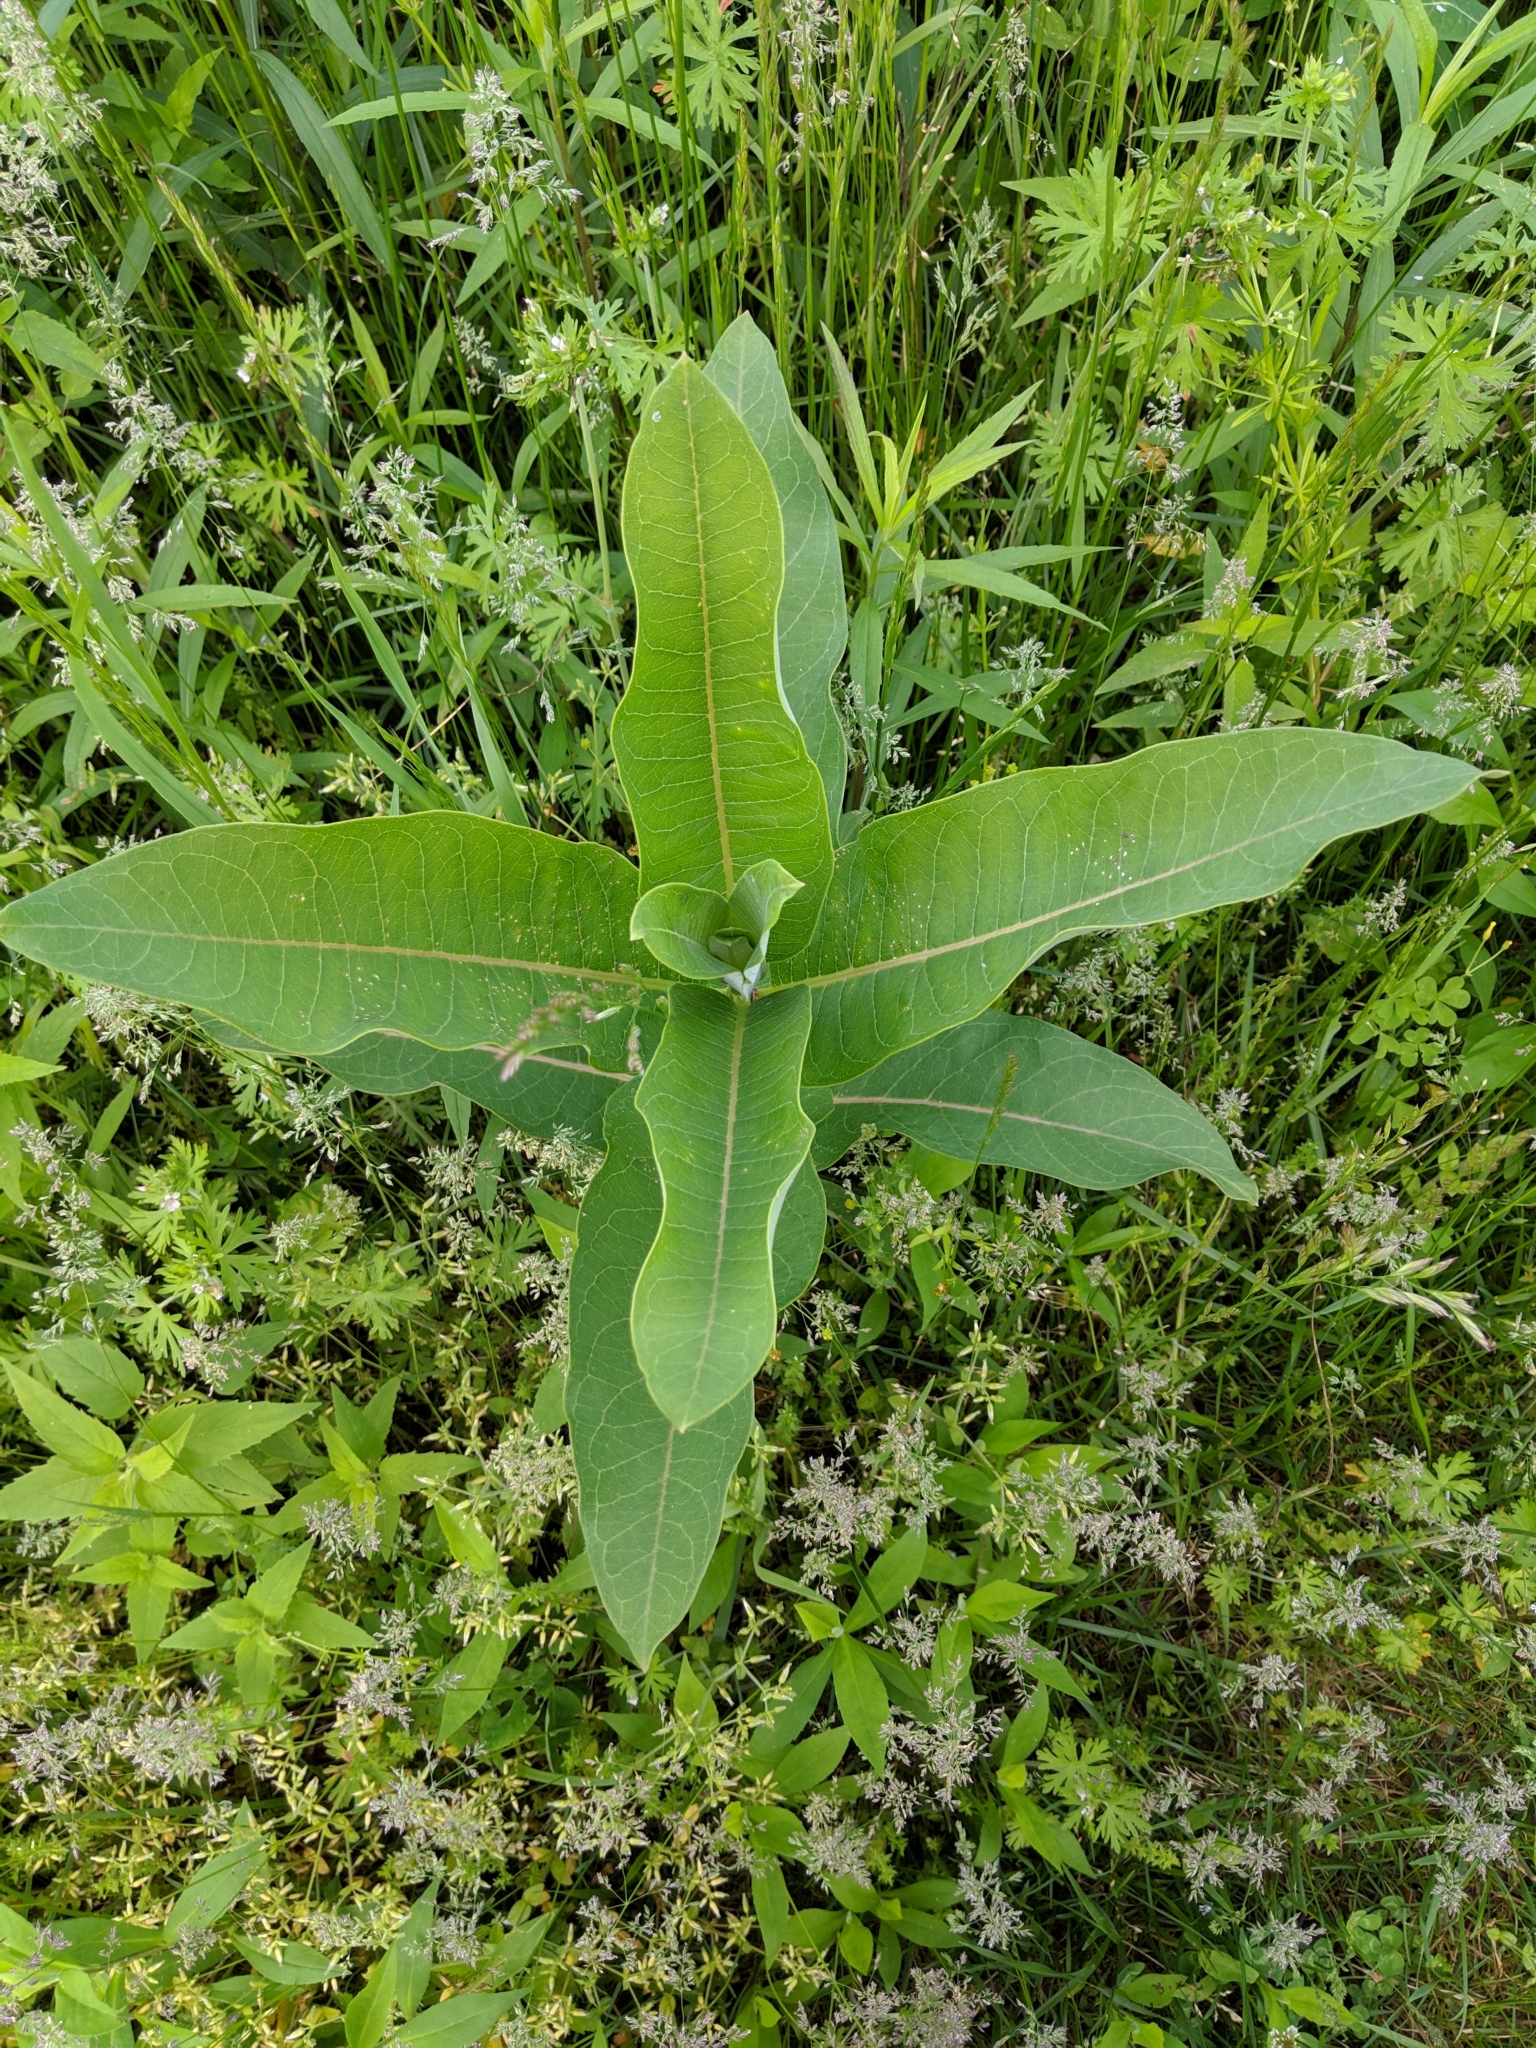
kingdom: Plantae
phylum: Tracheophyta
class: Magnoliopsida
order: Gentianales
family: Apocynaceae
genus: Asclepias
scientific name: Asclepias syriaca
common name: Common milkweed
